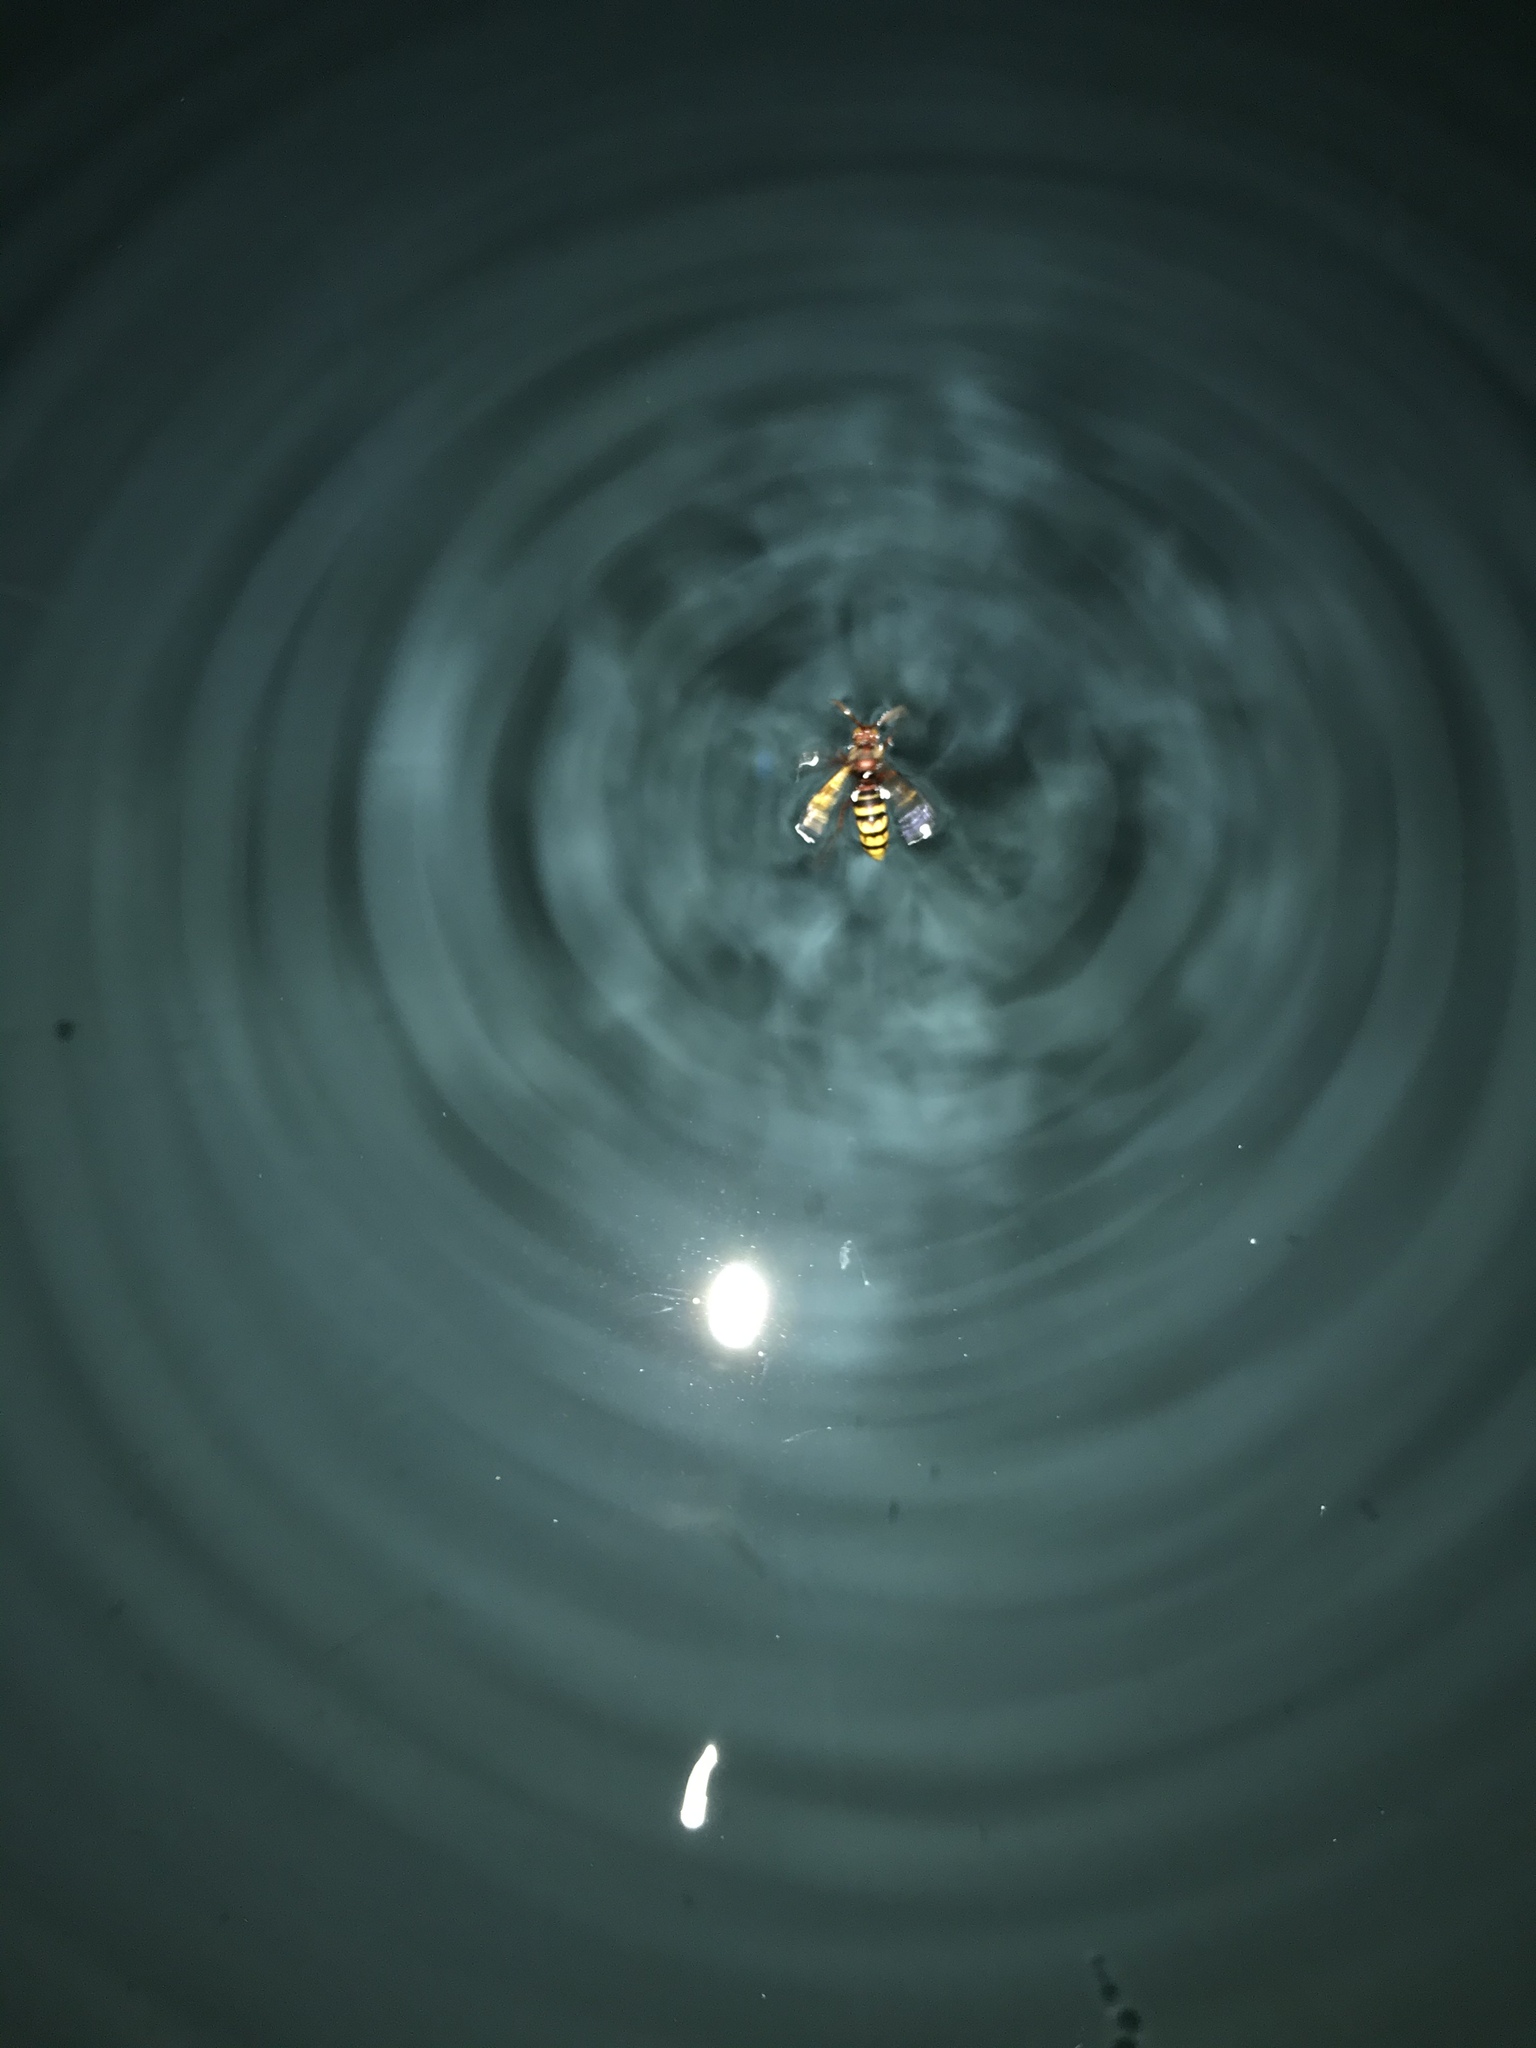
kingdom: Animalia
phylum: Arthropoda
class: Insecta
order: Hymenoptera
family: Vespidae
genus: Vespa
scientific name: Vespa crabro
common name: Hornet
